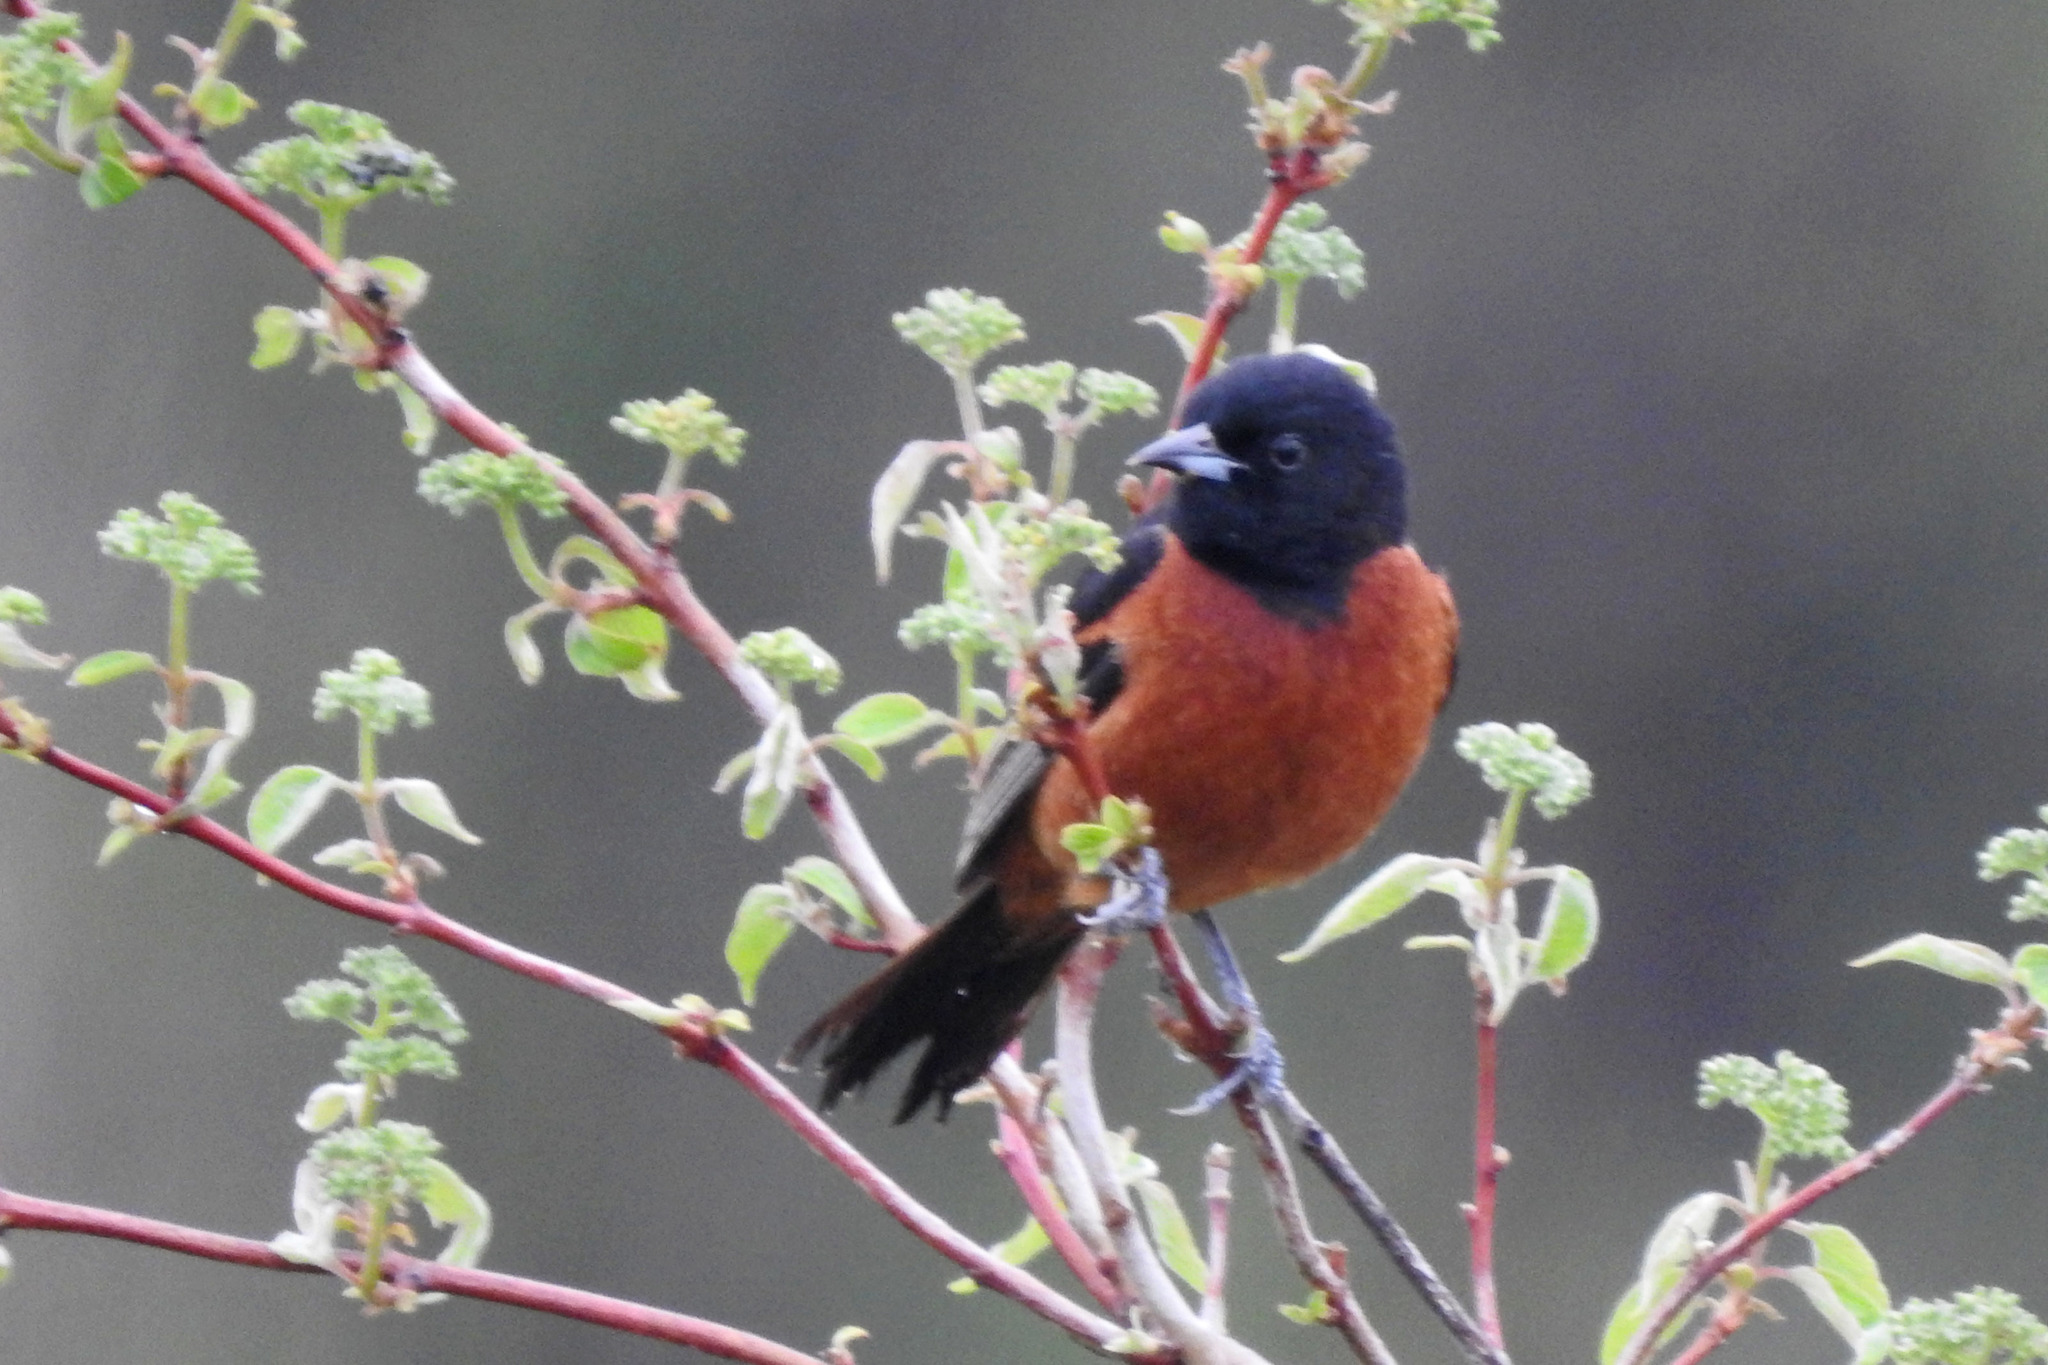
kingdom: Animalia
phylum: Chordata
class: Aves
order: Passeriformes
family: Icteridae
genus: Icterus
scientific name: Icterus spurius
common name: Orchard oriole
